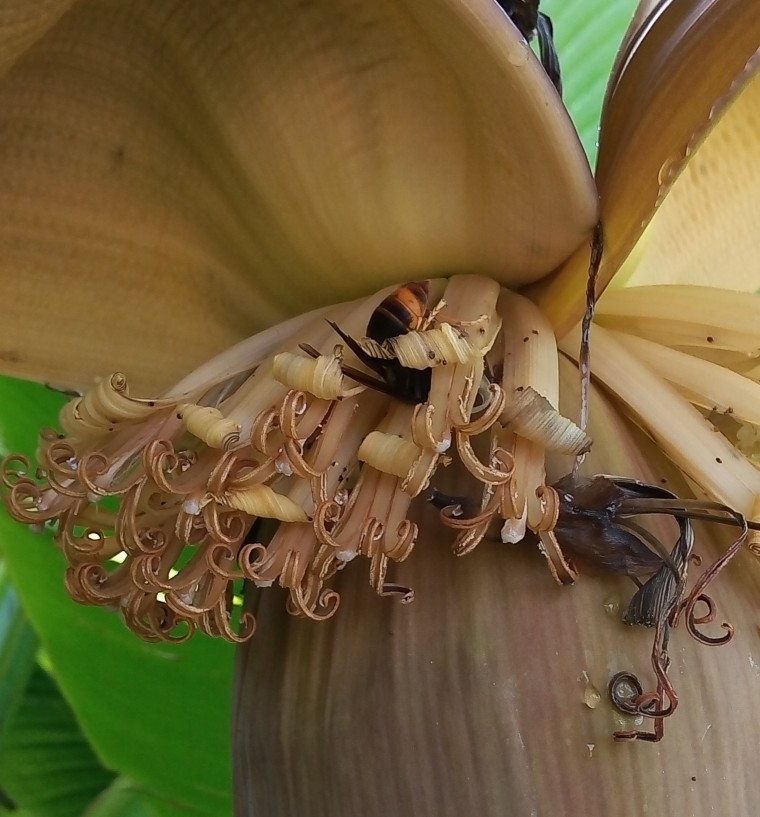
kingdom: Animalia
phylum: Arthropoda
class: Insecta
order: Hymenoptera
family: Vespidae
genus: Vespa
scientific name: Vespa velutina
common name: Asian hornet
